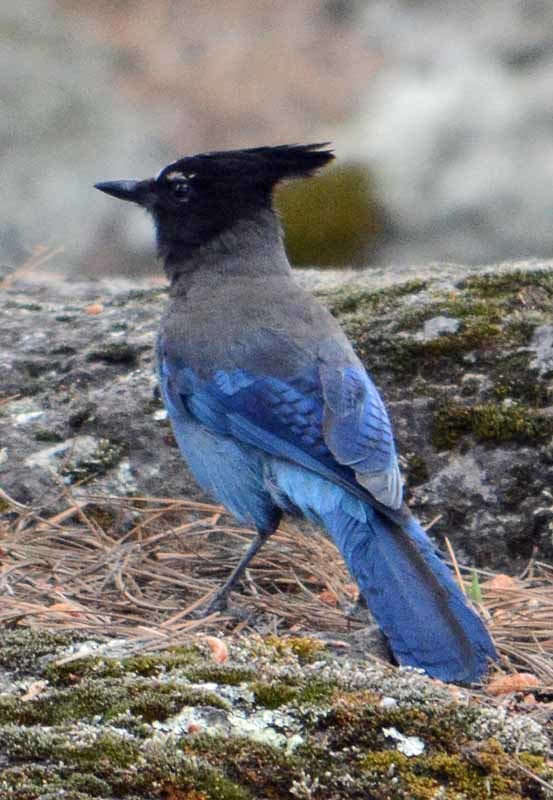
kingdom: Animalia
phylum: Chordata
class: Aves
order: Passeriformes
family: Corvidae
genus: Cyanocitta
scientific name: Cyanocitta stelleri
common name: Steller's jay
